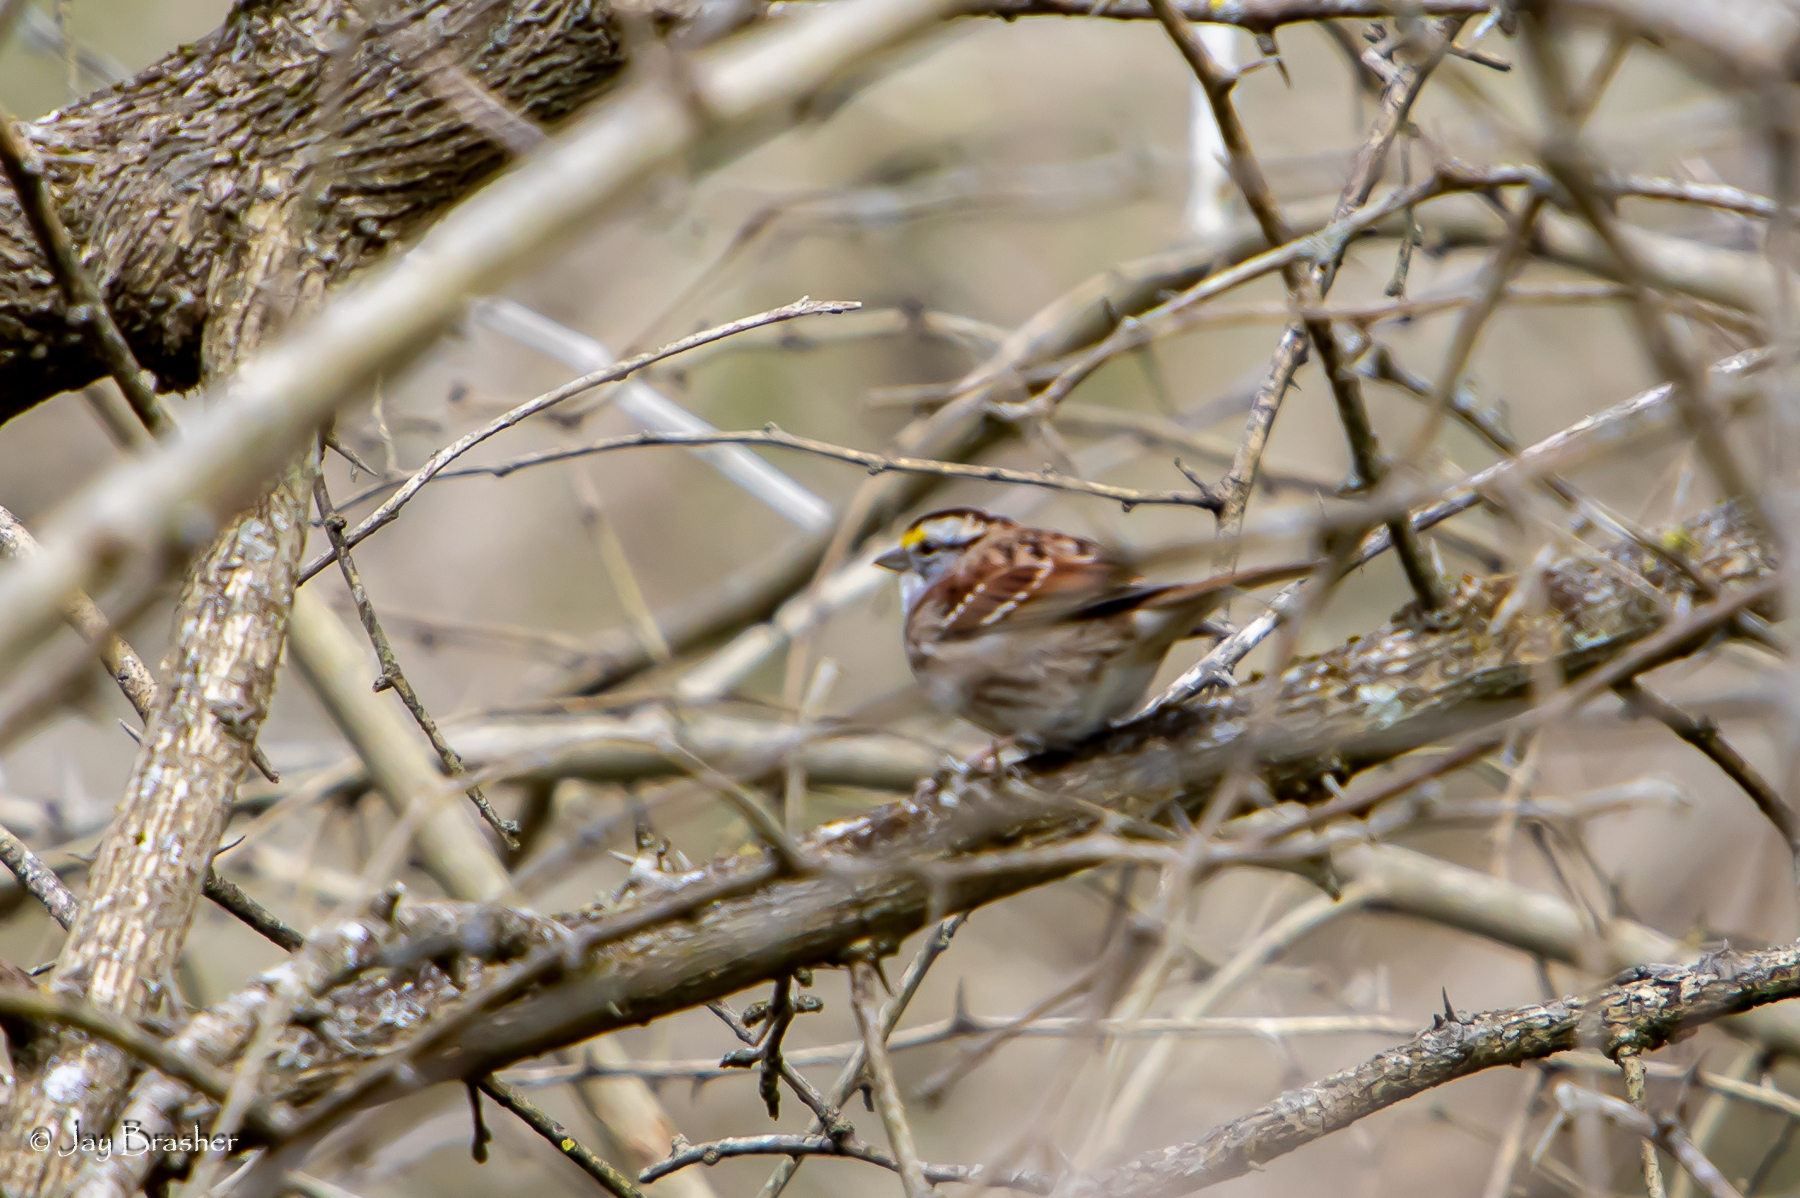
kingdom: Animalia
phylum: Chordata
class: Aves
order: Passeriformes
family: Passerellidae
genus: Zonotrichia
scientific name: Zonotrichia albicollis
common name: White-throated sparrow
